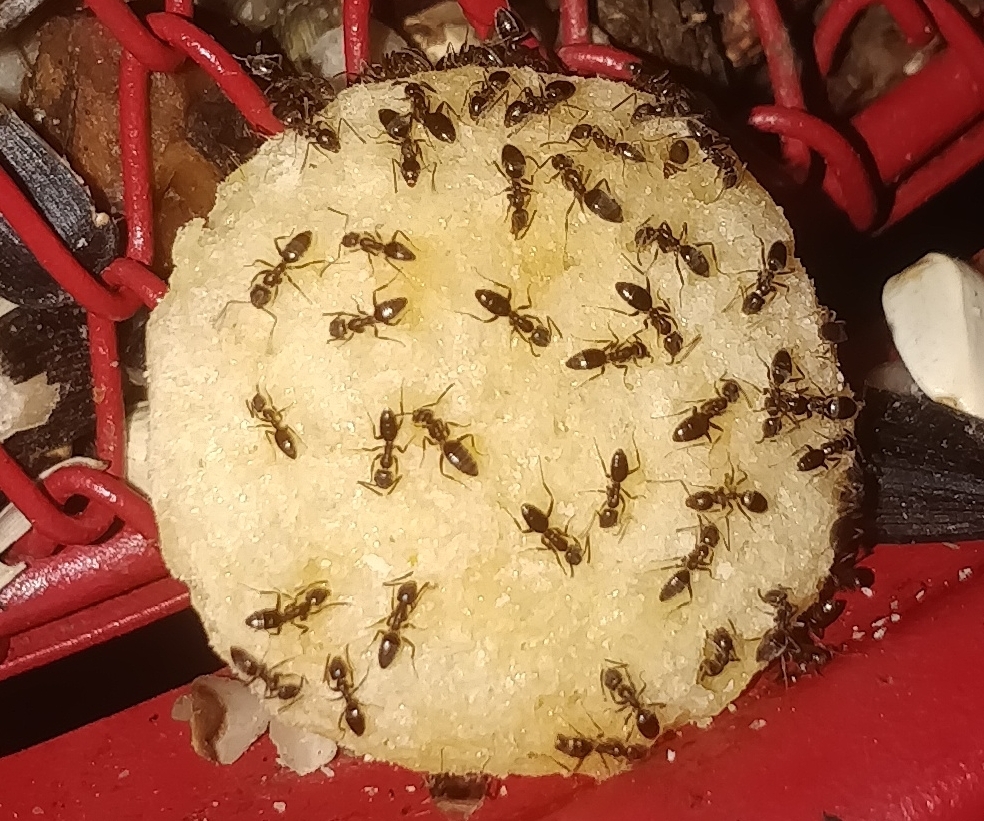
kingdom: Animalia
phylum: Arthropoda
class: Insecta
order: Hymenoptera
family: Formicidae
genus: Tapinoma
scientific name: Tapinoma sessile
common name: Odorous house ant
